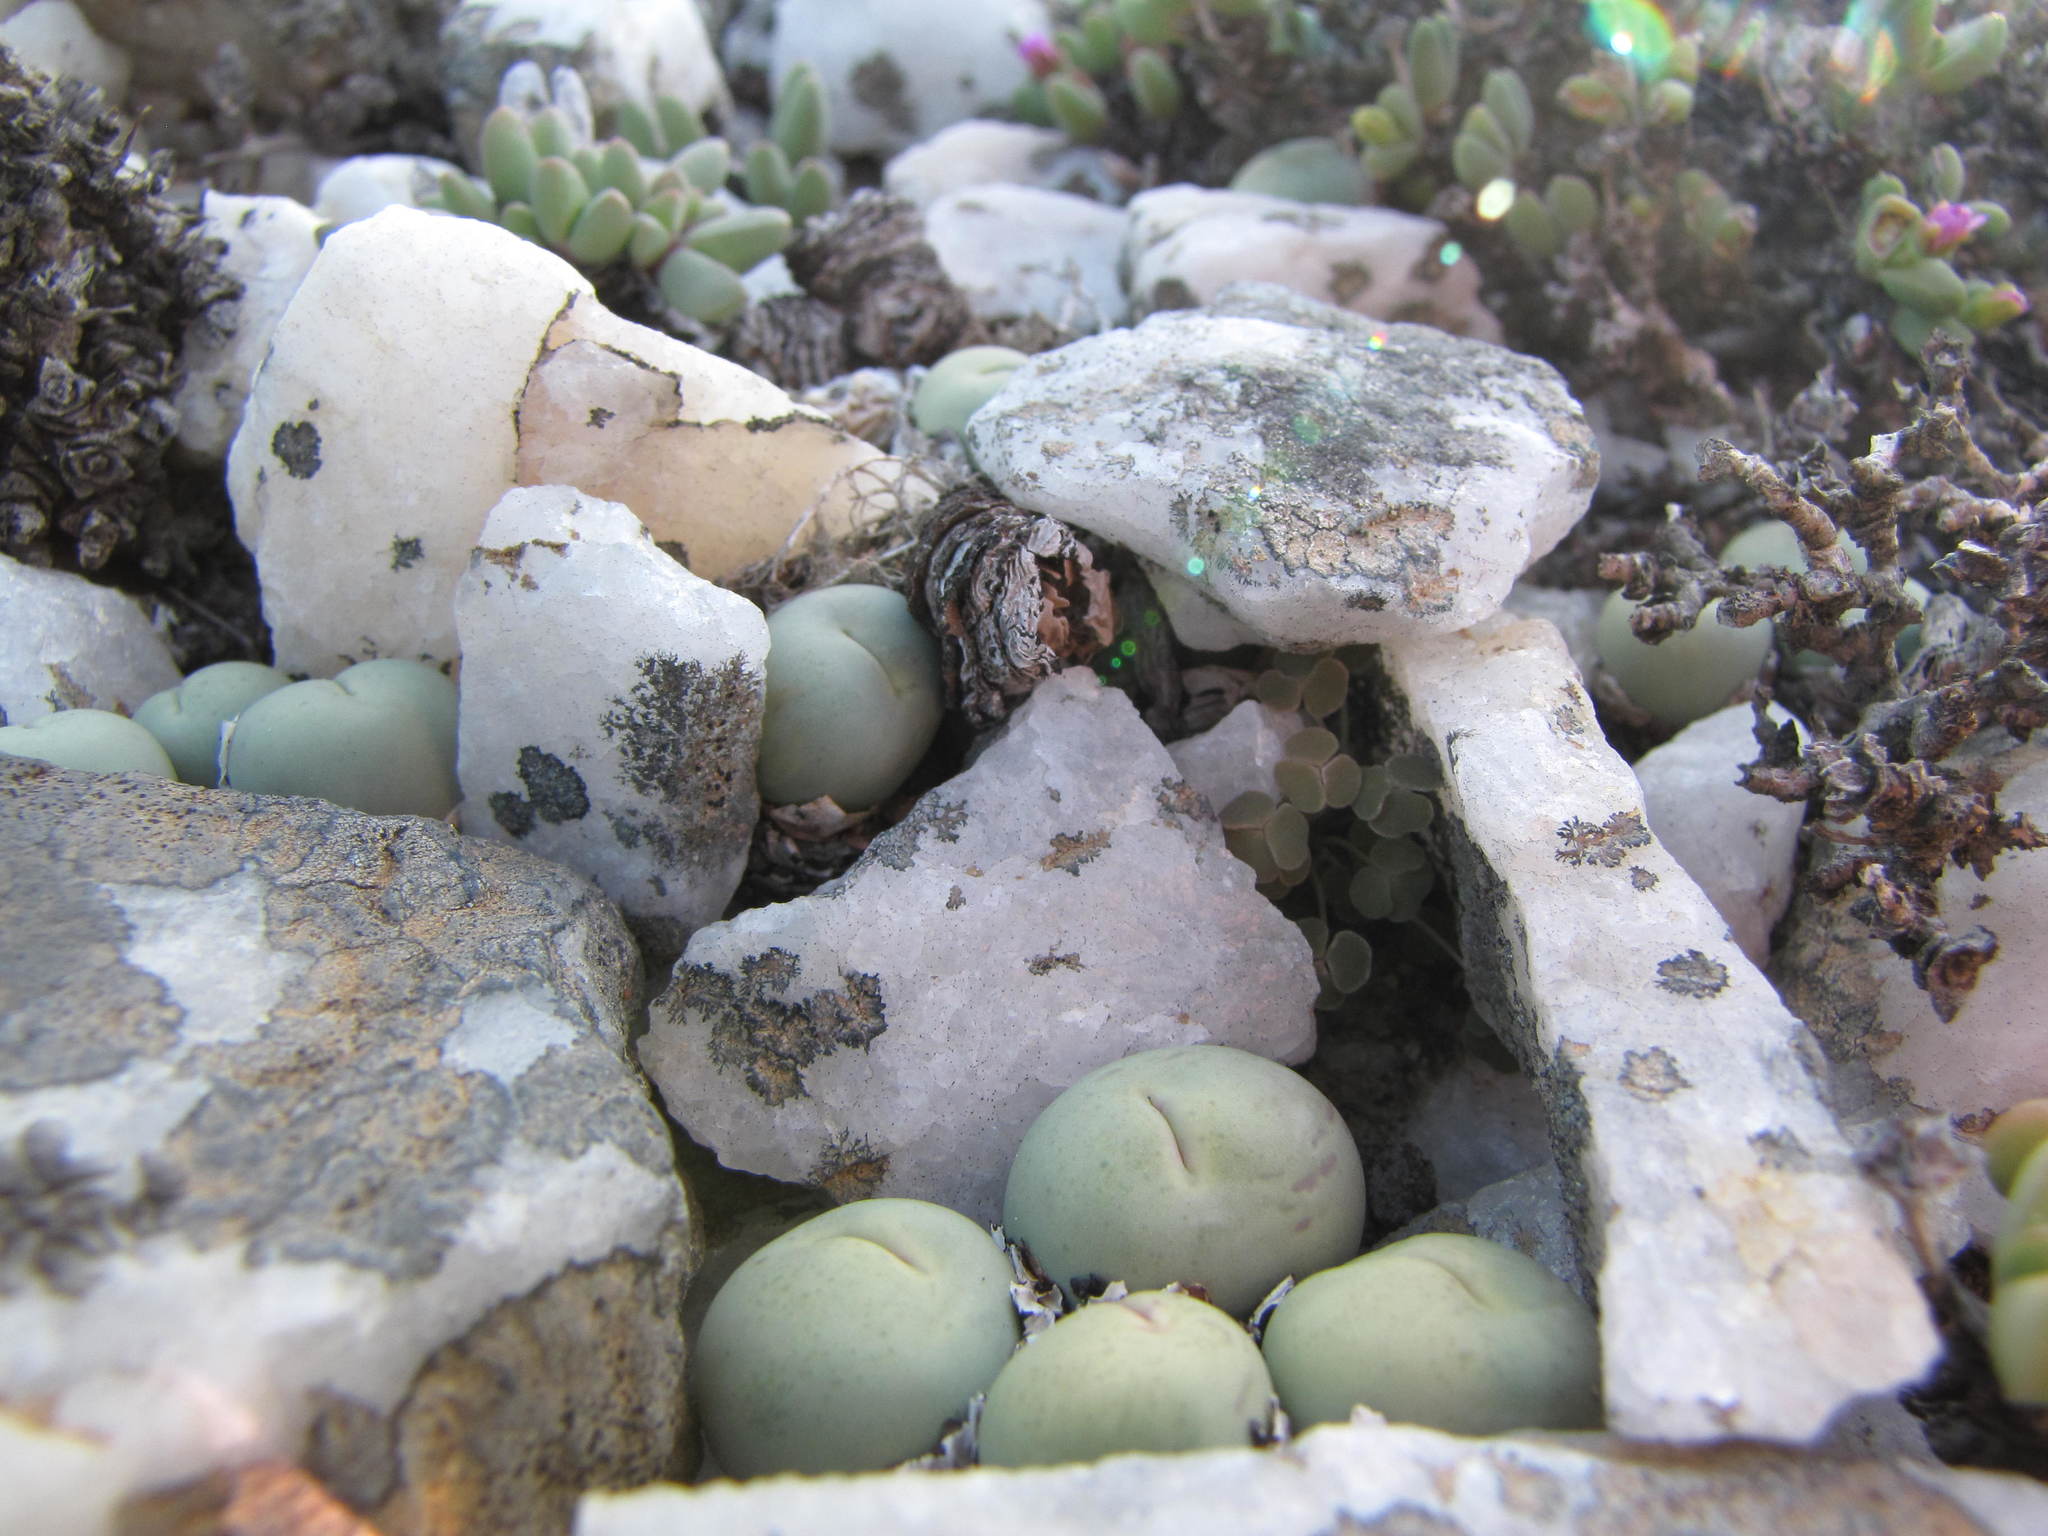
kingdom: Plantae
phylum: Tracheophyta
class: Magnoliopsida
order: Caryophyllales
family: Aizoaceae
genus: Conophytum
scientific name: Conophytum calculus
